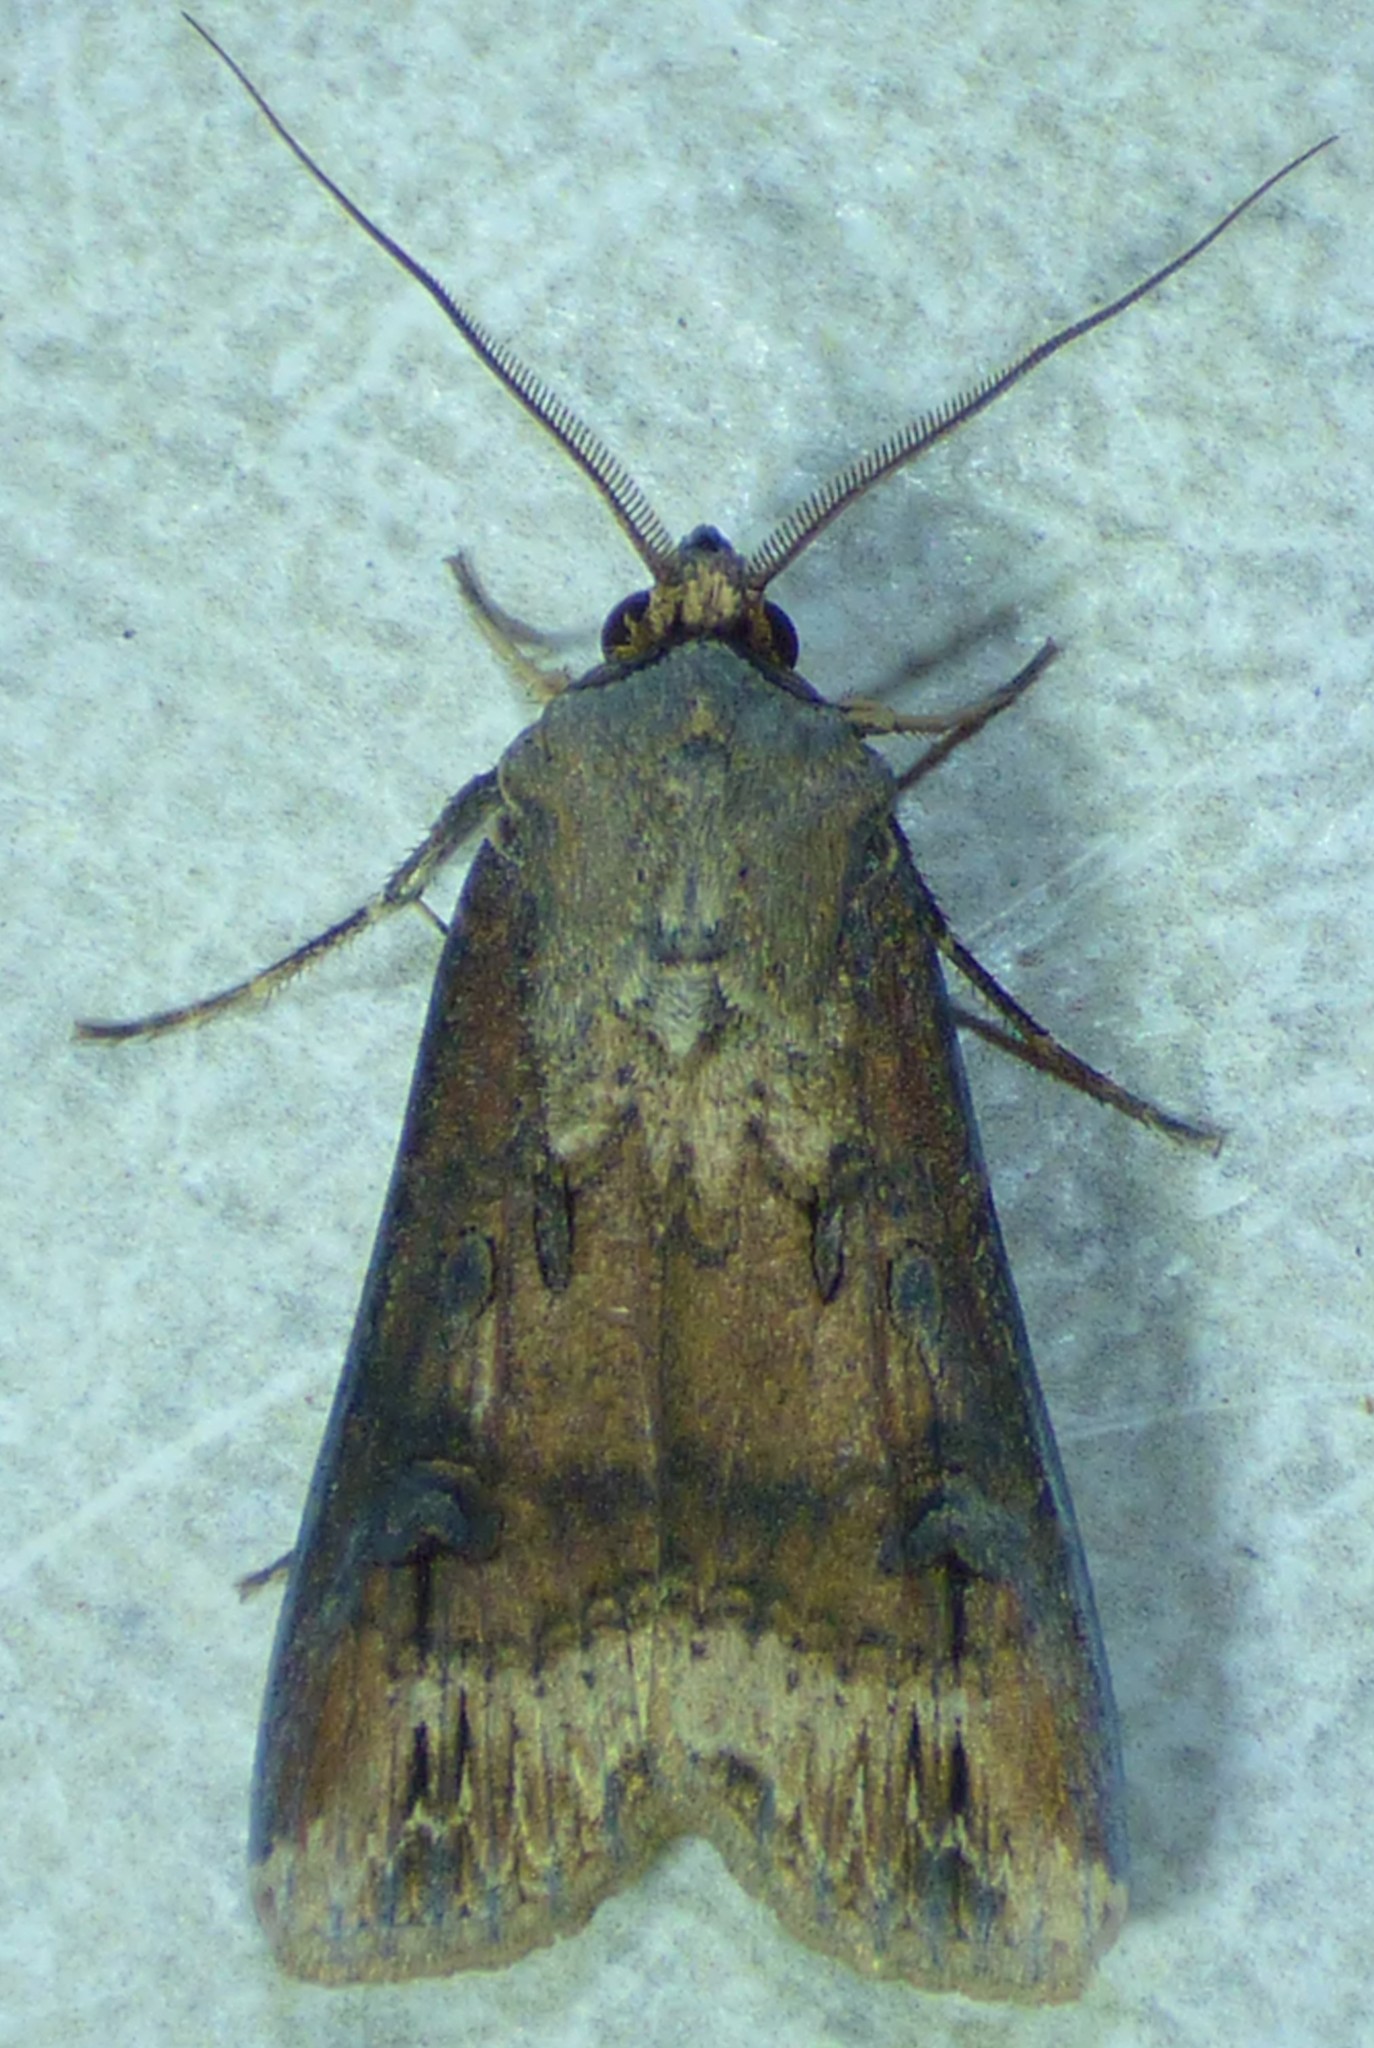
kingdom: Animalia
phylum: Arthropoda
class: Insecta
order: Lepidoptera
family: Noctuidae
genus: Agrotis
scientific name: Agrotis ipsilon
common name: Dark sword-grass
